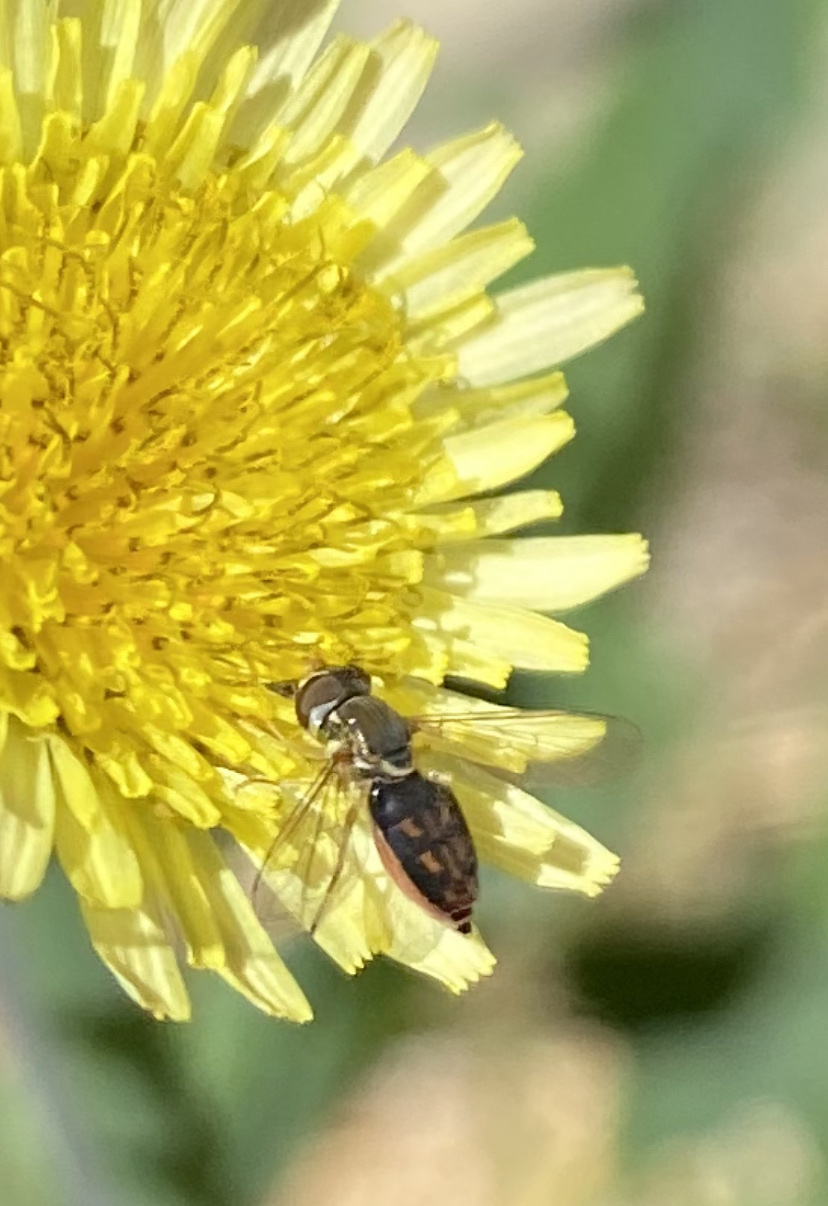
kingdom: Animalia
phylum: Arthropoda
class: Insecta
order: Diptera
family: Syrphidae
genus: Toxomerus
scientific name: Toxomerus marginatus
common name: Syrphid fly
